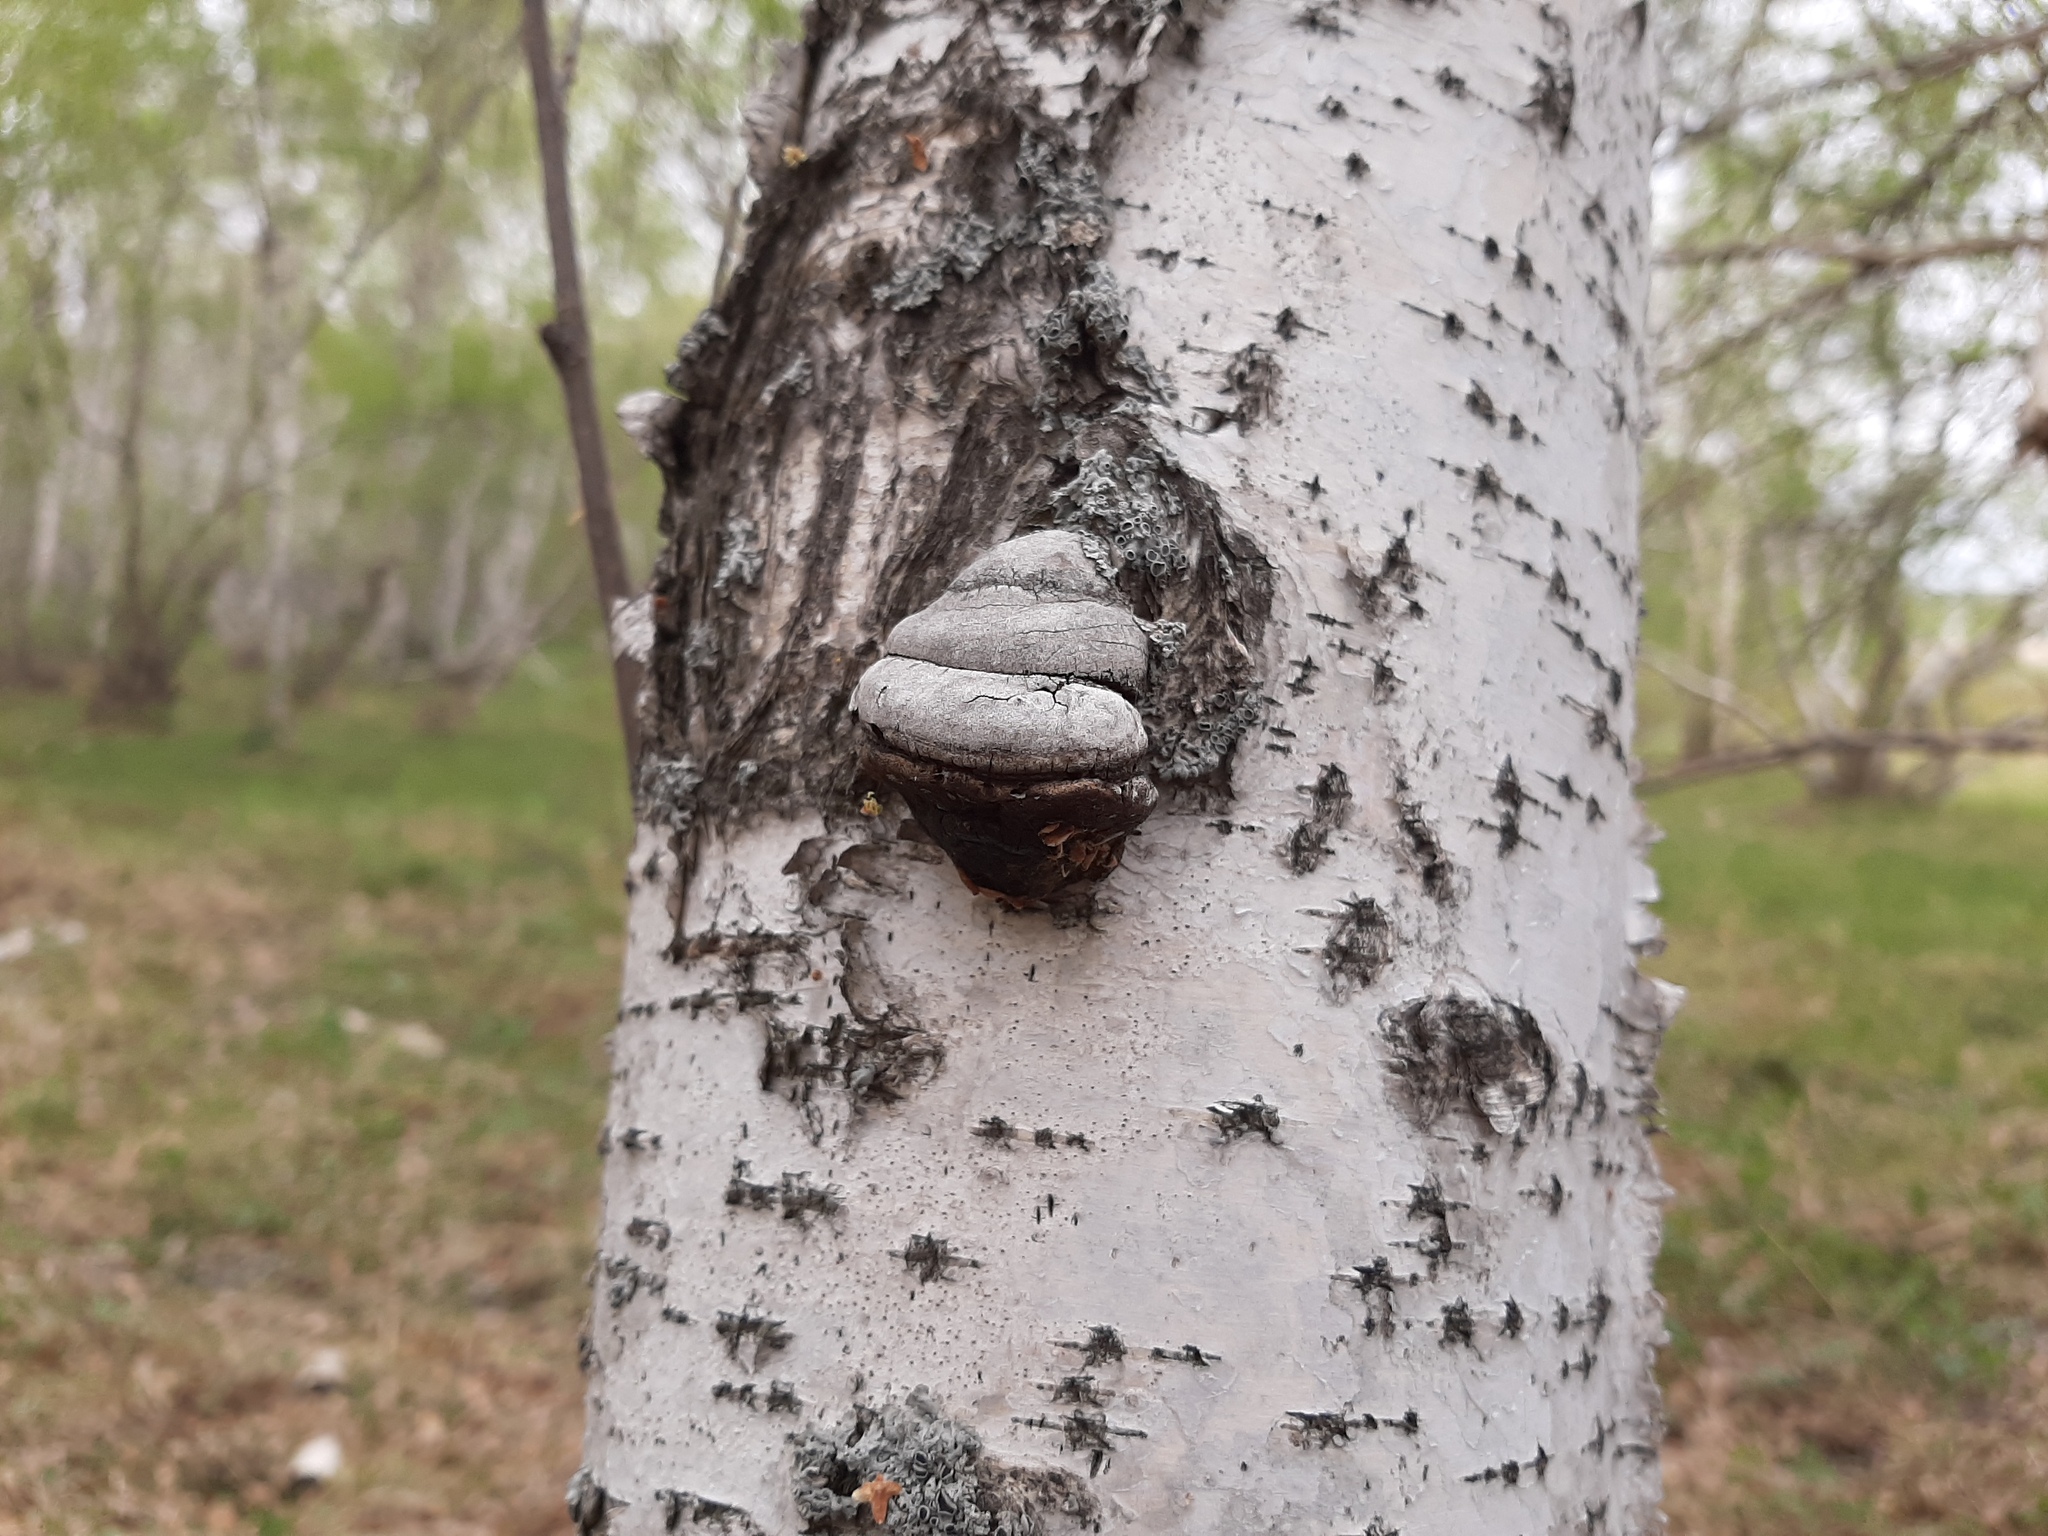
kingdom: Fungi
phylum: Basidiomycota
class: Agaricomycetes
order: Polyporales
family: Polyporaceae
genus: Fomes
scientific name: Fomes fomentarius
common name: Hoof fungus
